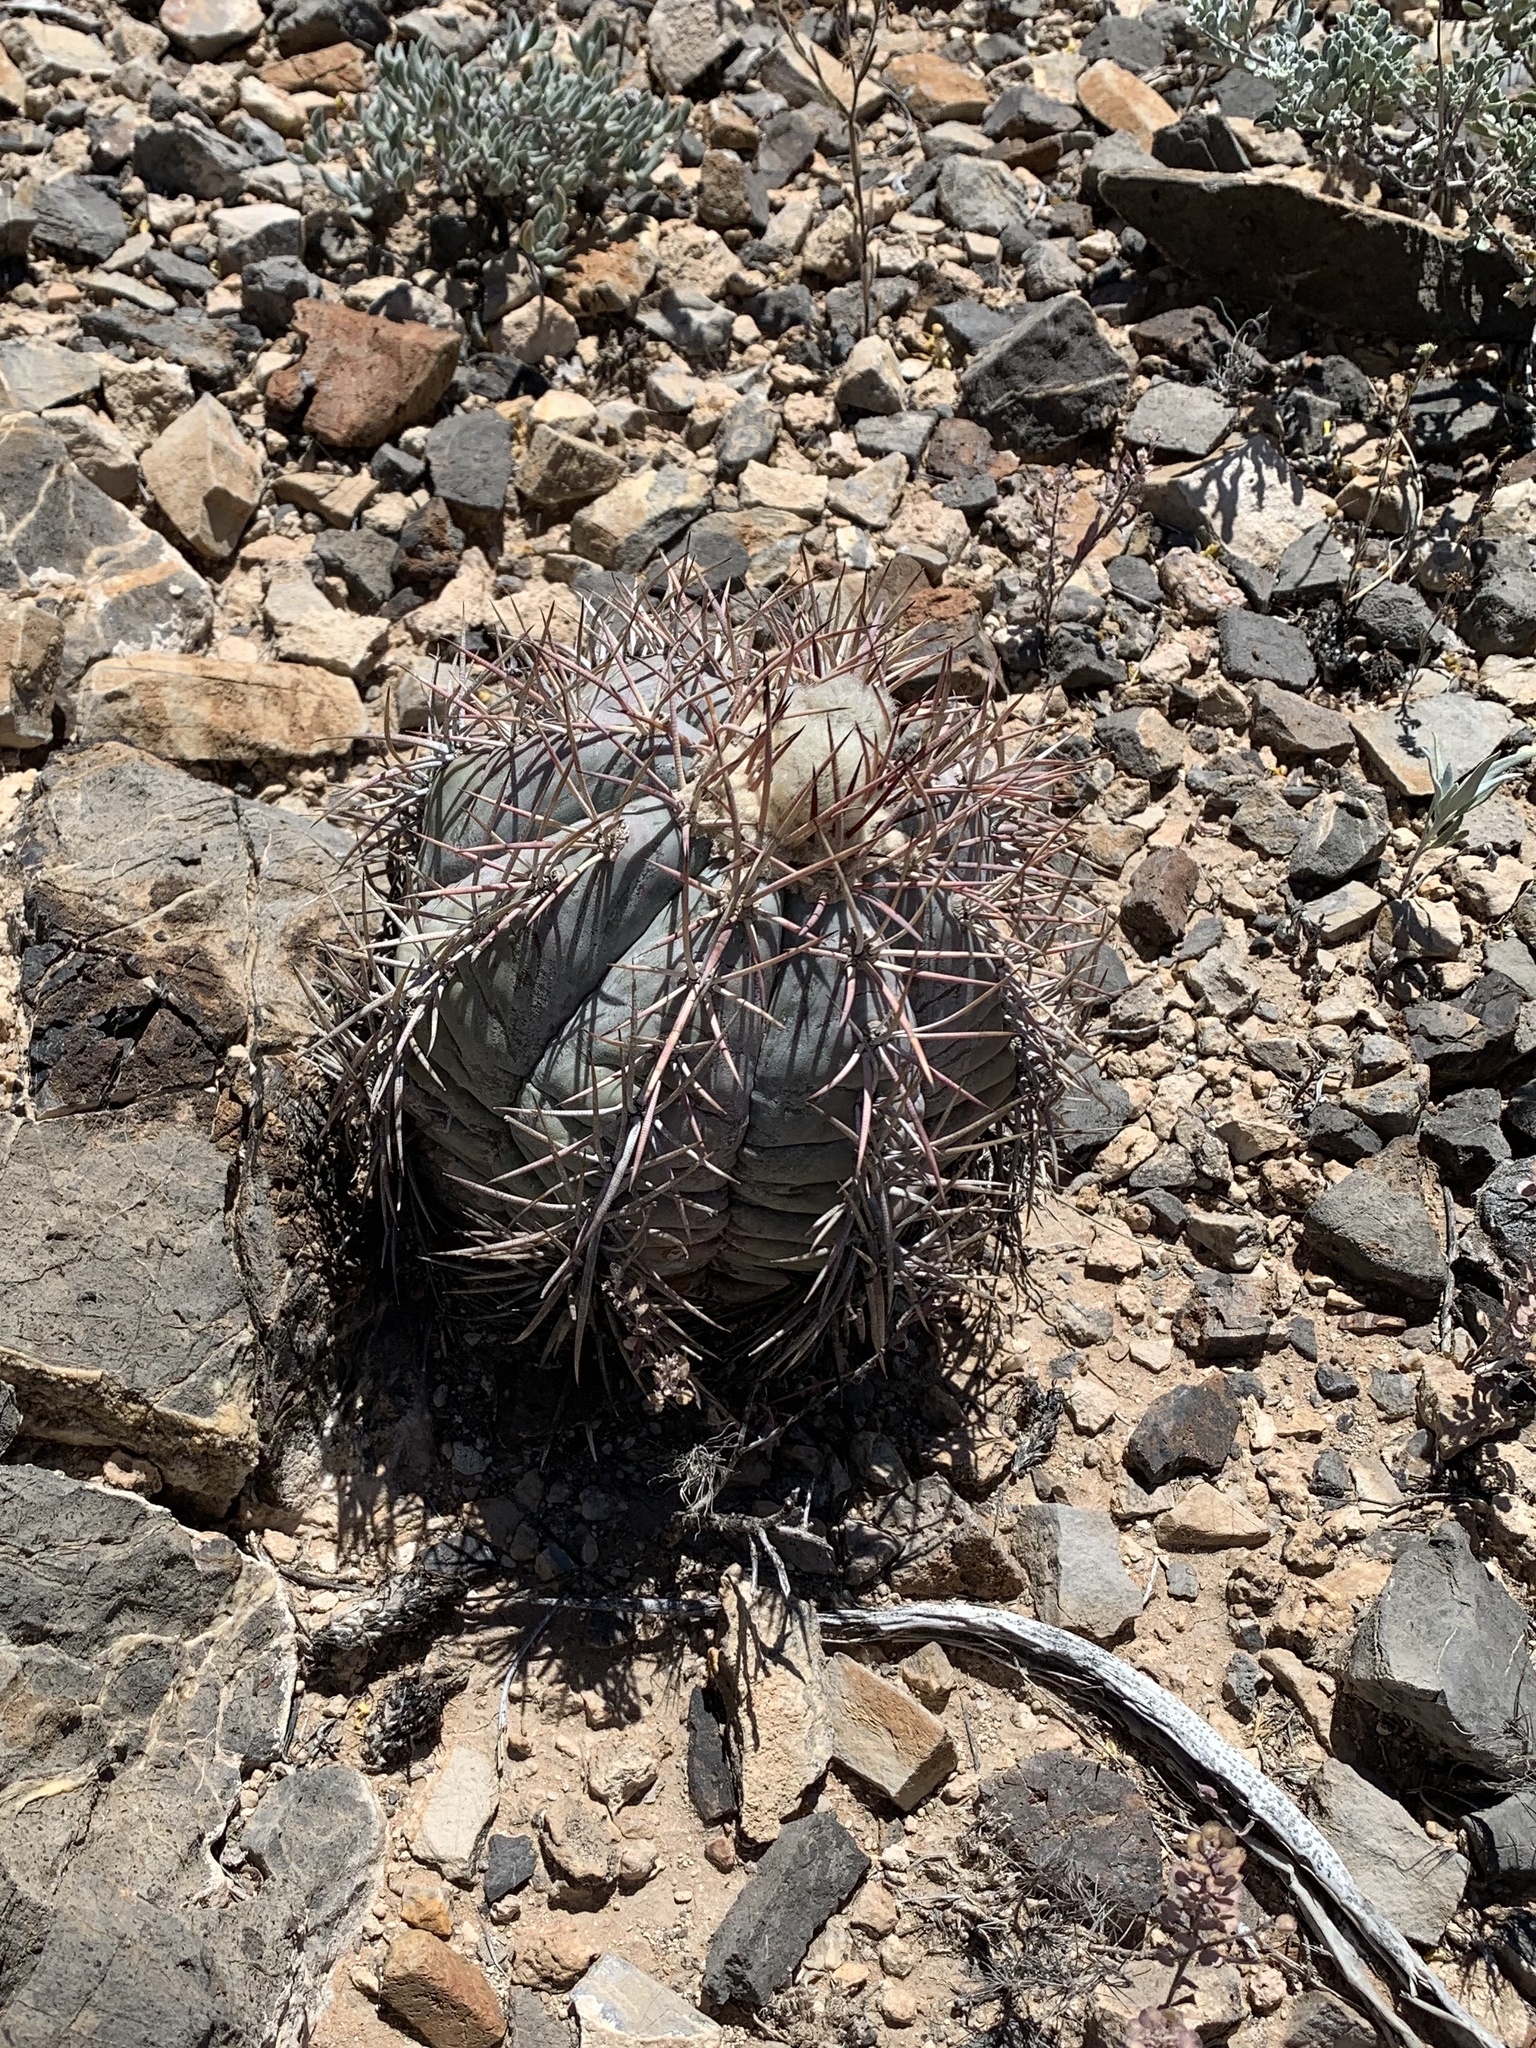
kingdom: Plantae
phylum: Tracheophyta
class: Magnoliopsida
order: Caryophyllales
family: Cactaceae
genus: Echinocactus
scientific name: Echinocactus horizonthalonius
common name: Devilshead
